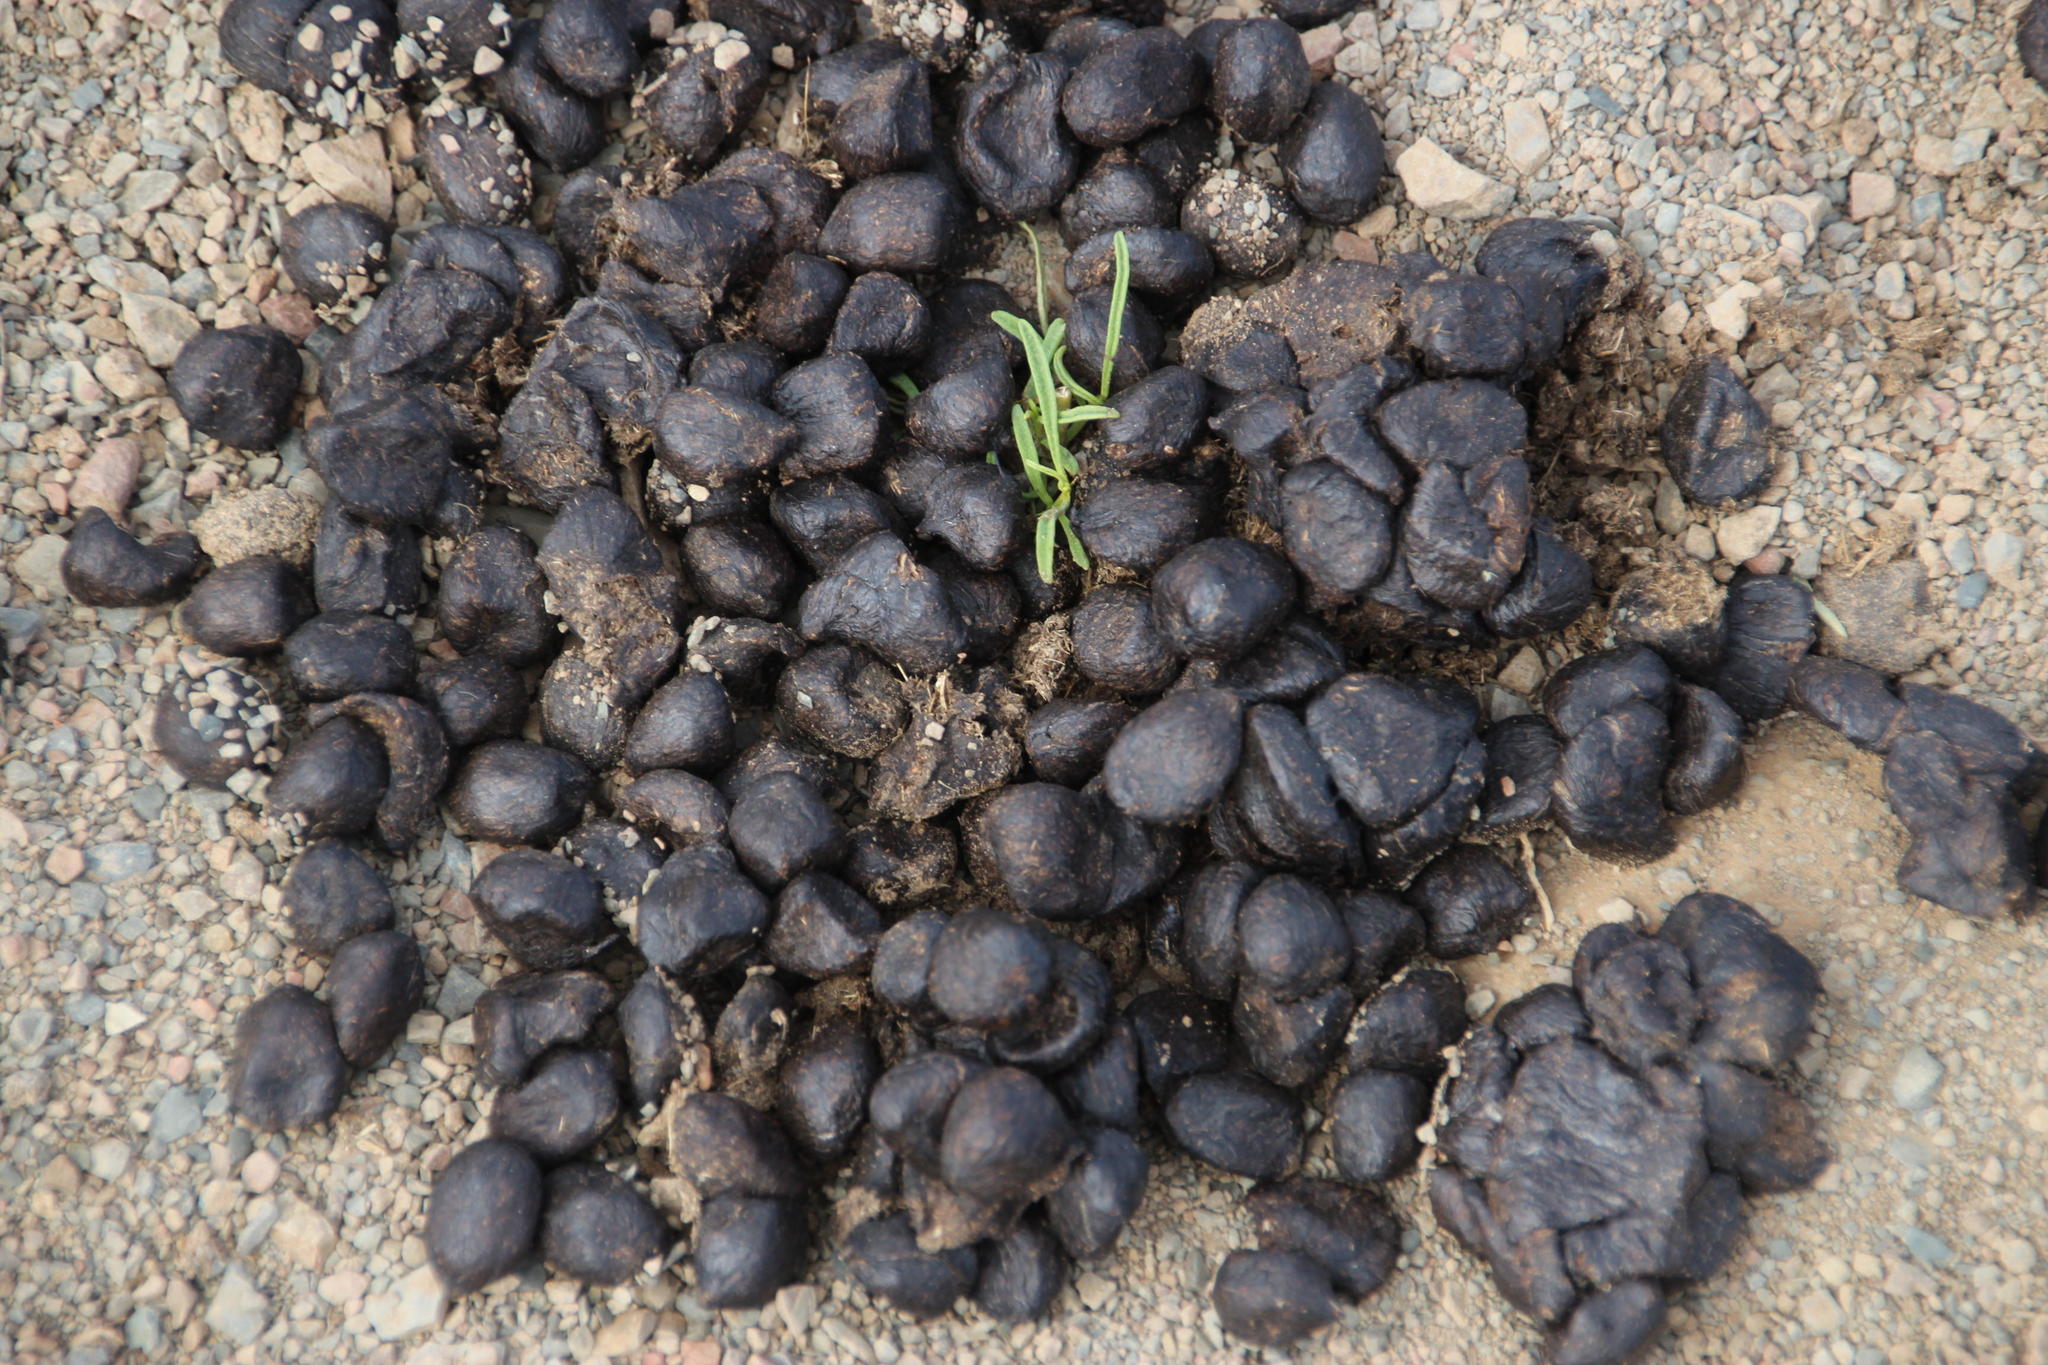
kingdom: Animalia
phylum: Chordata
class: Mammalia
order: Artiodactyla
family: Bovidae
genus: Antidorcas
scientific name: Antidorcas marsupialis
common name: Springbok
